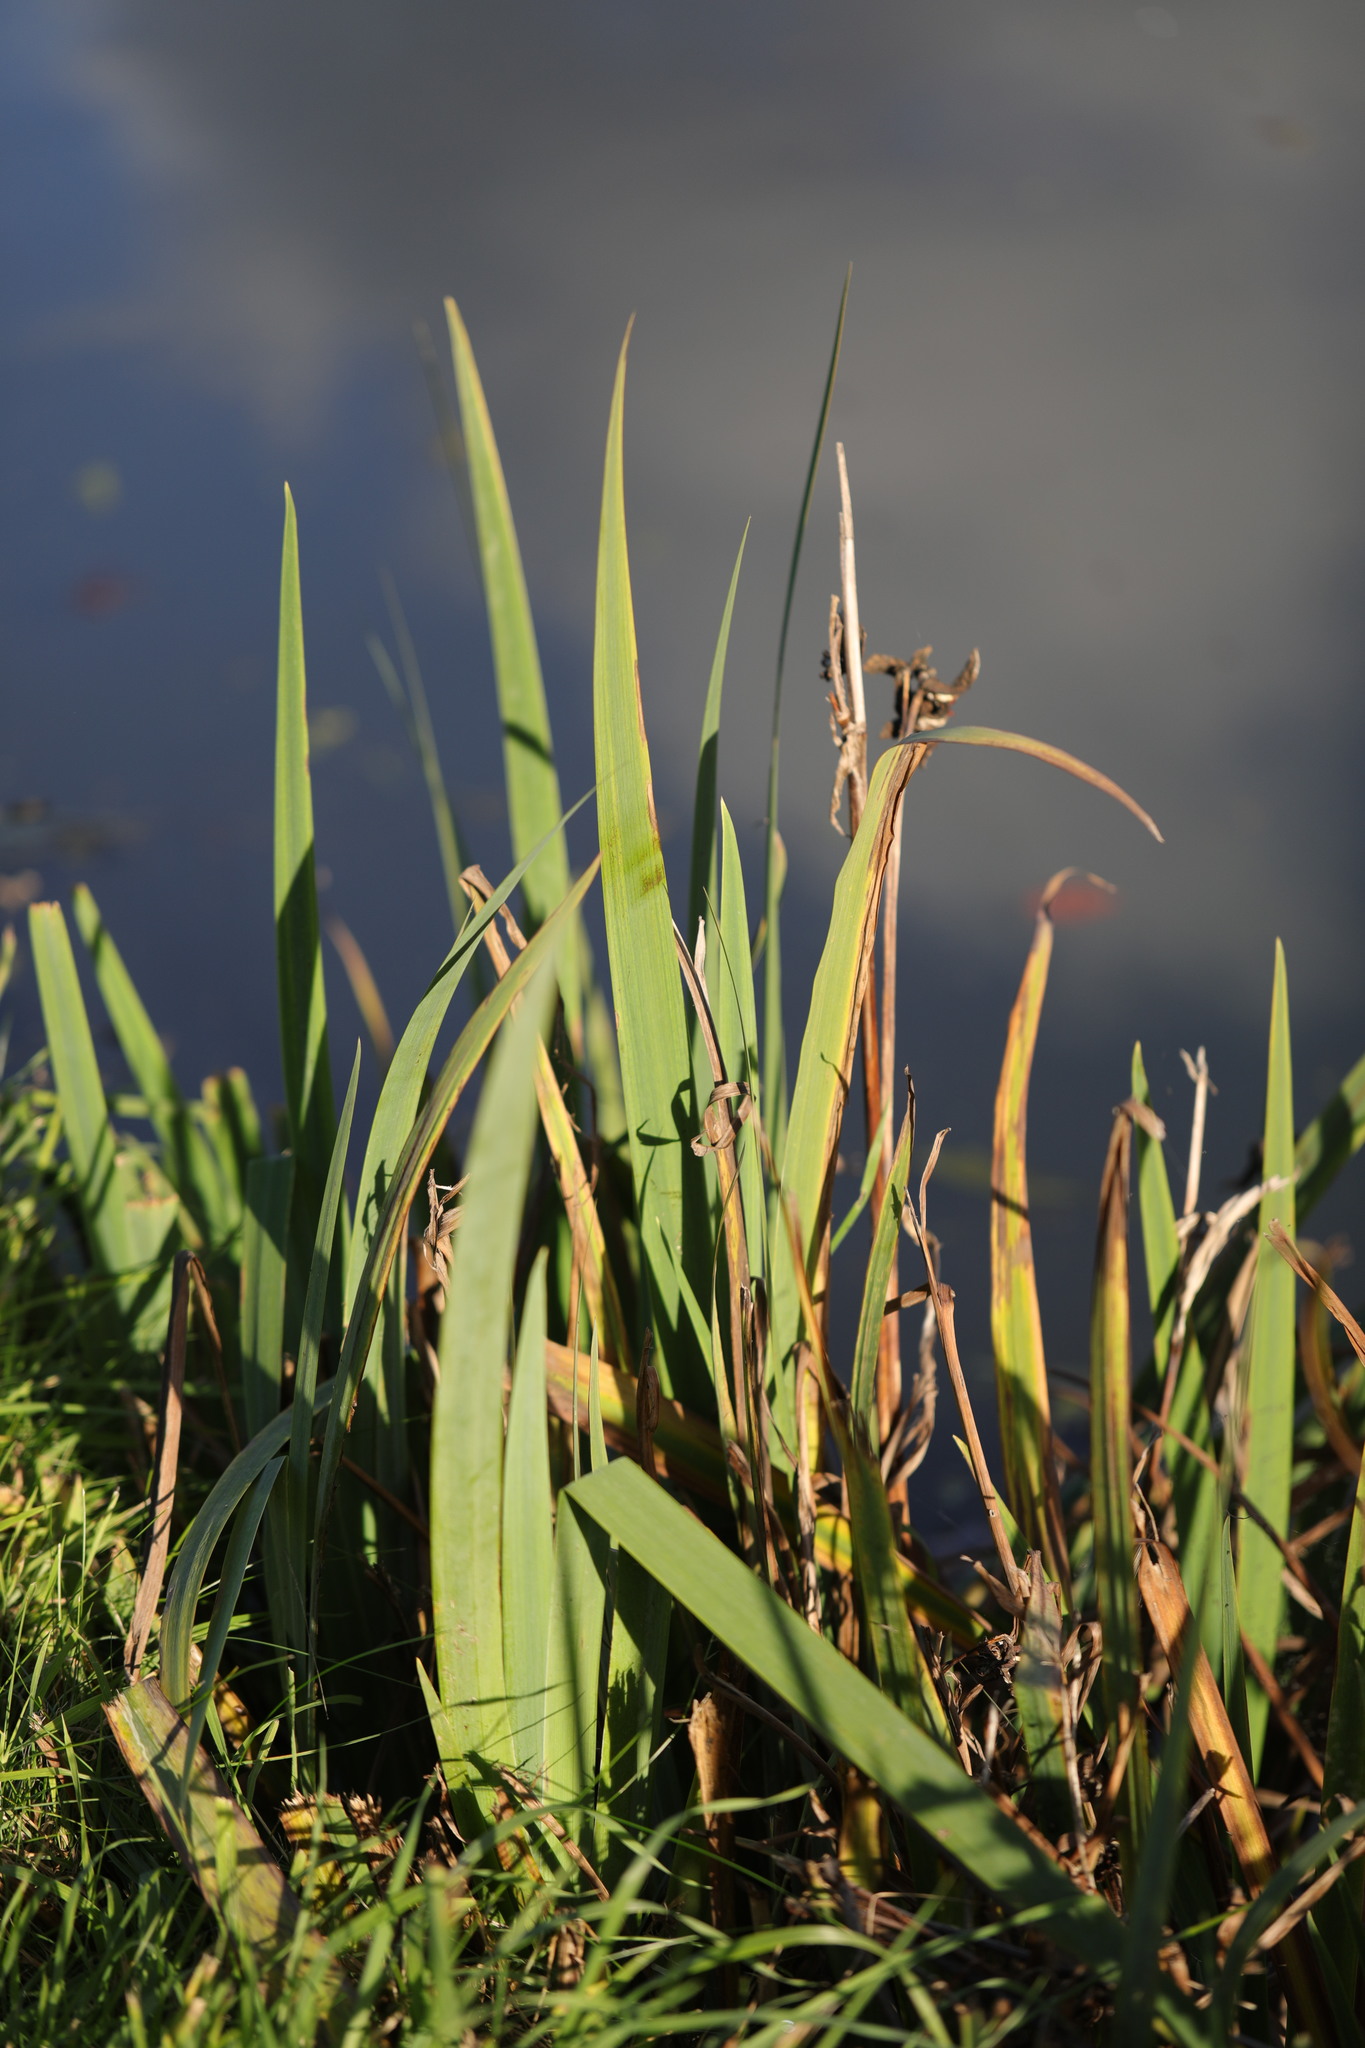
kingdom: Plantae
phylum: Tracheophyta
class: Liliopsida
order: Asparagales
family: Iridaceae
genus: Iris
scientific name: Iris pseudacorus
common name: Yellow flag
